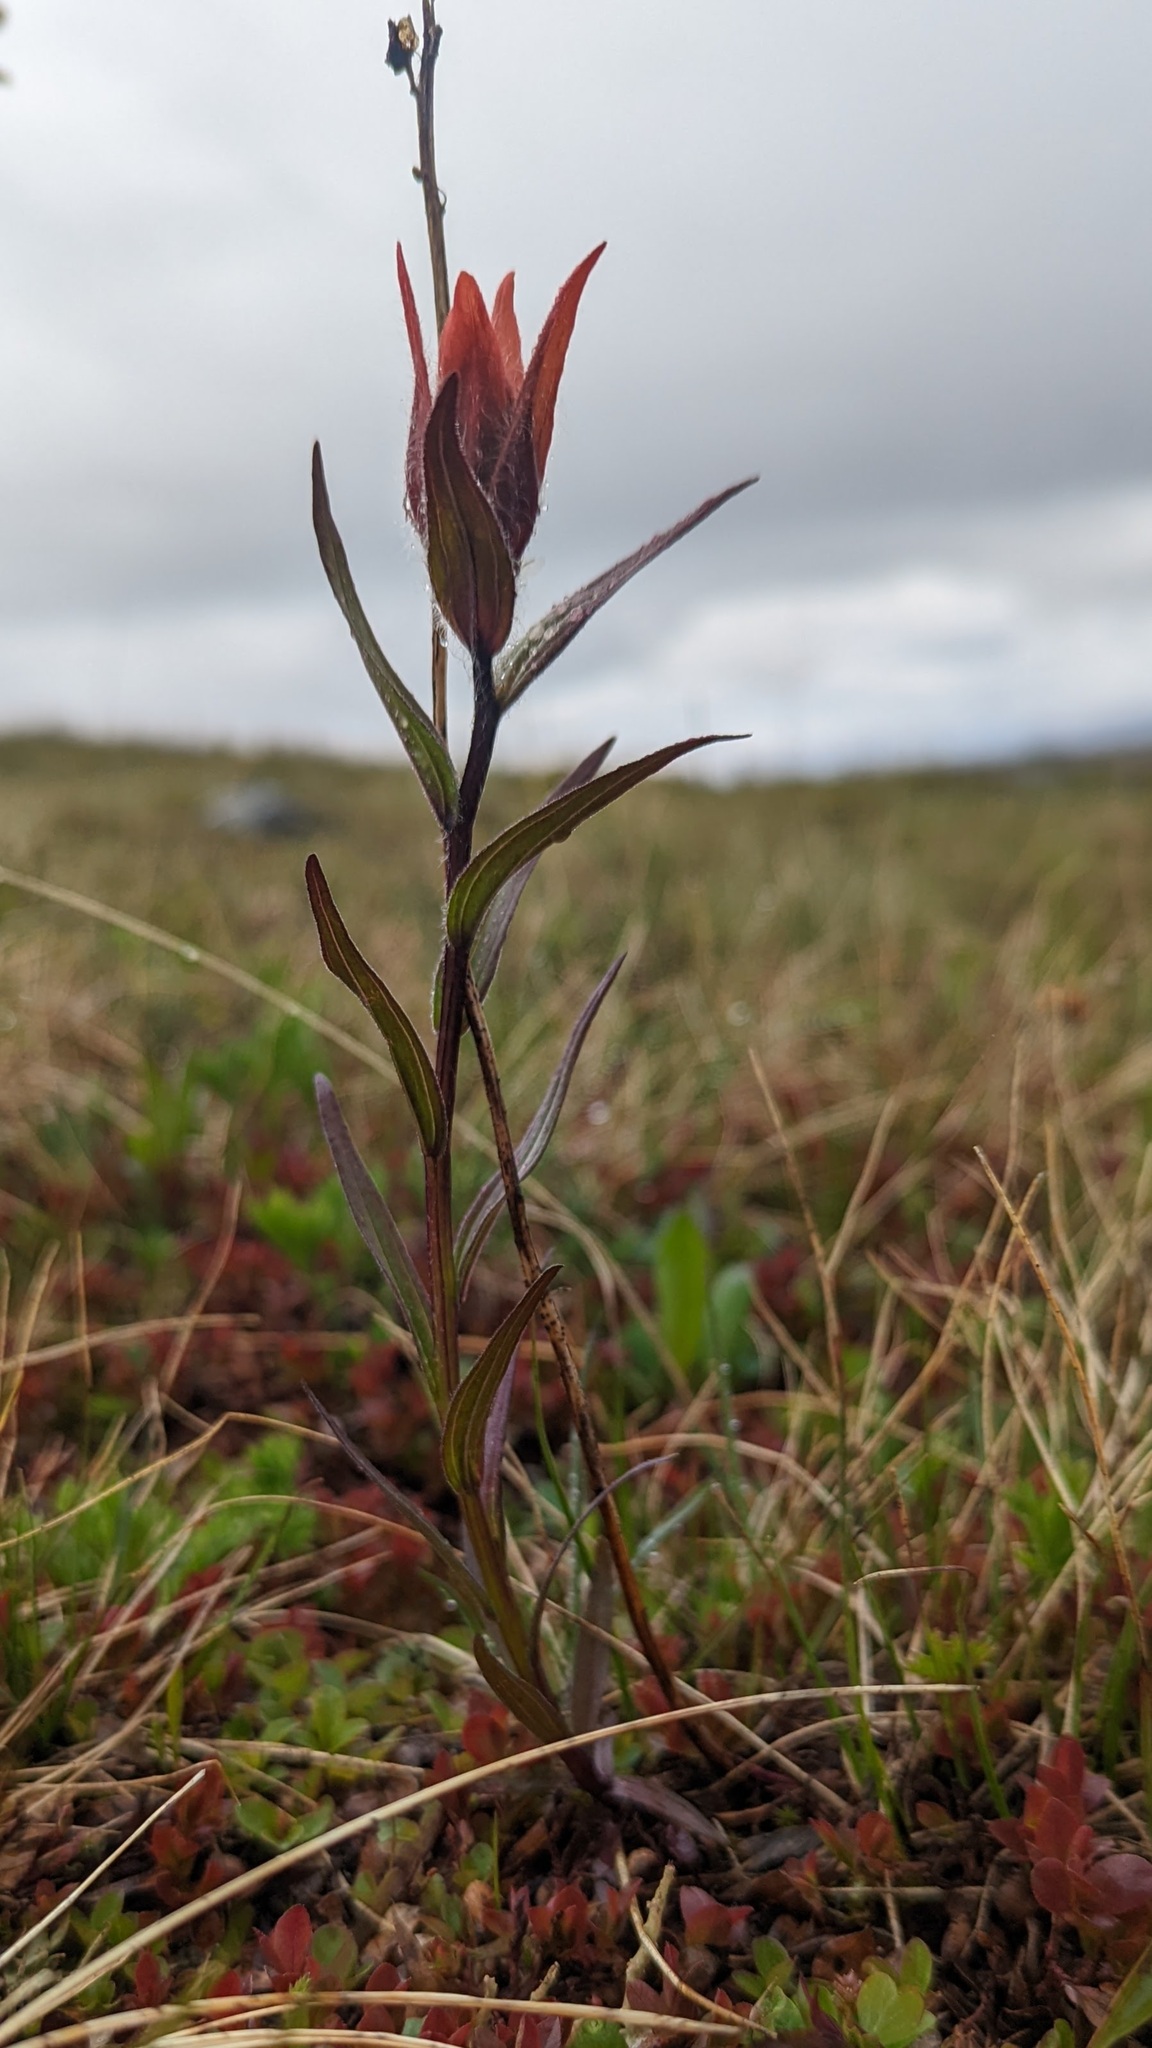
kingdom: Plantae
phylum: Tracheophyta
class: Magnoliopsida
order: Lamiales
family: Orobanchaceae
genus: Castilleja
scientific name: Castilleja miniata
